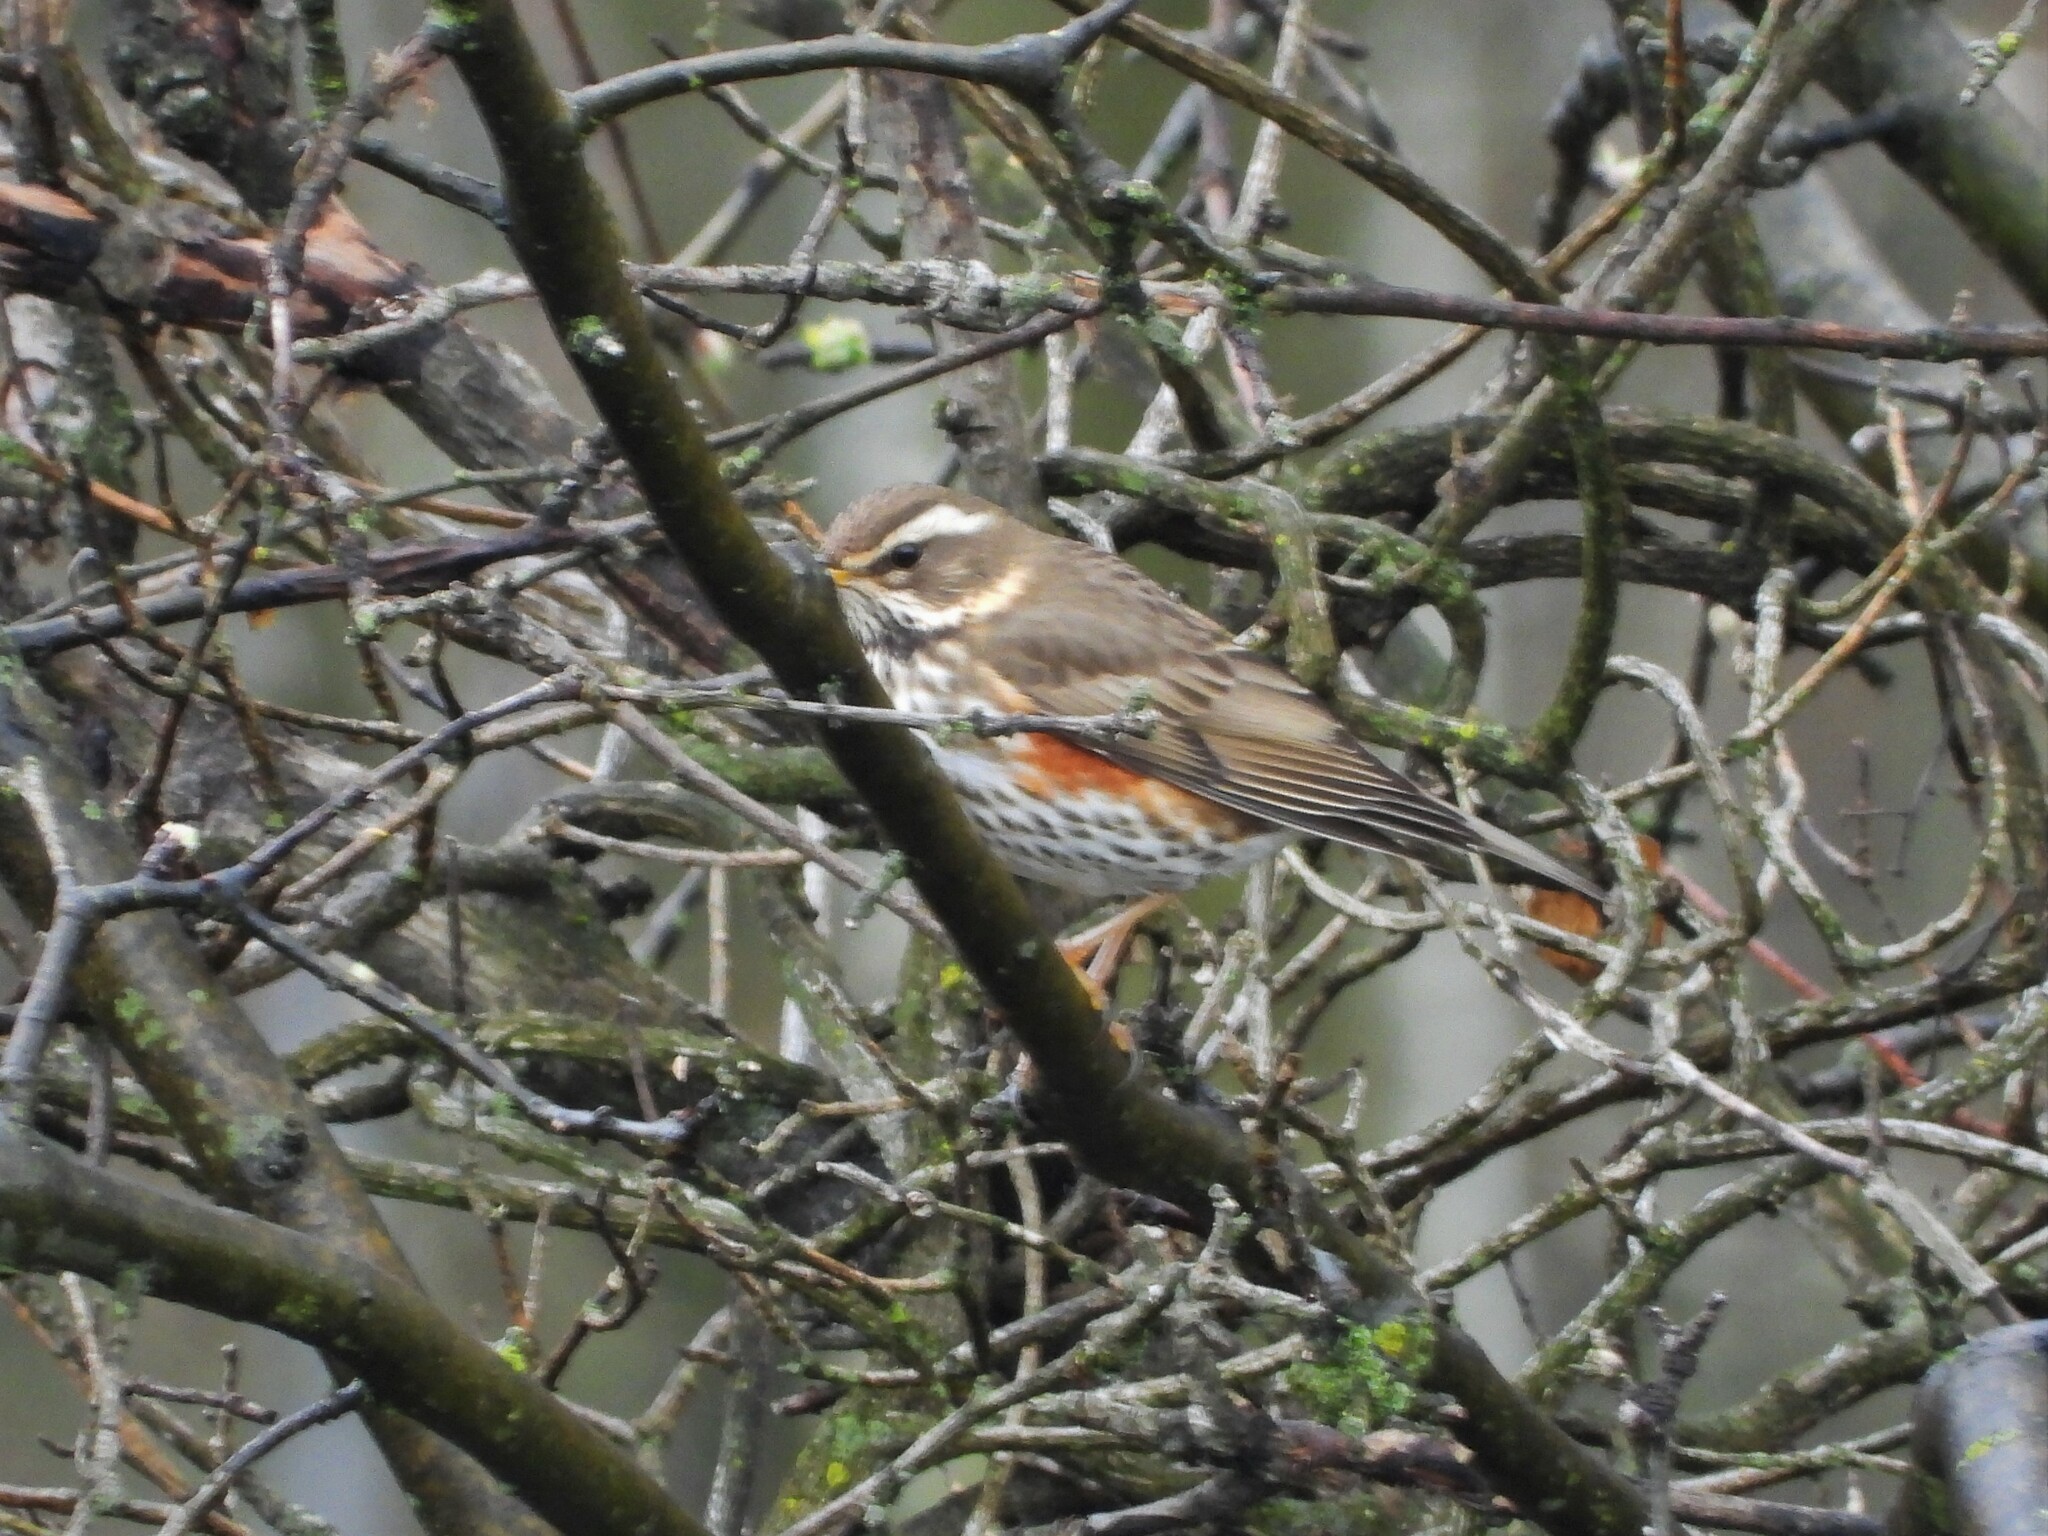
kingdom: Animalia
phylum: Chordata
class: Aves
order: Passeriformes
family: Turdidae
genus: Turdus
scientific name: Turdus iliacus
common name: Redwing
